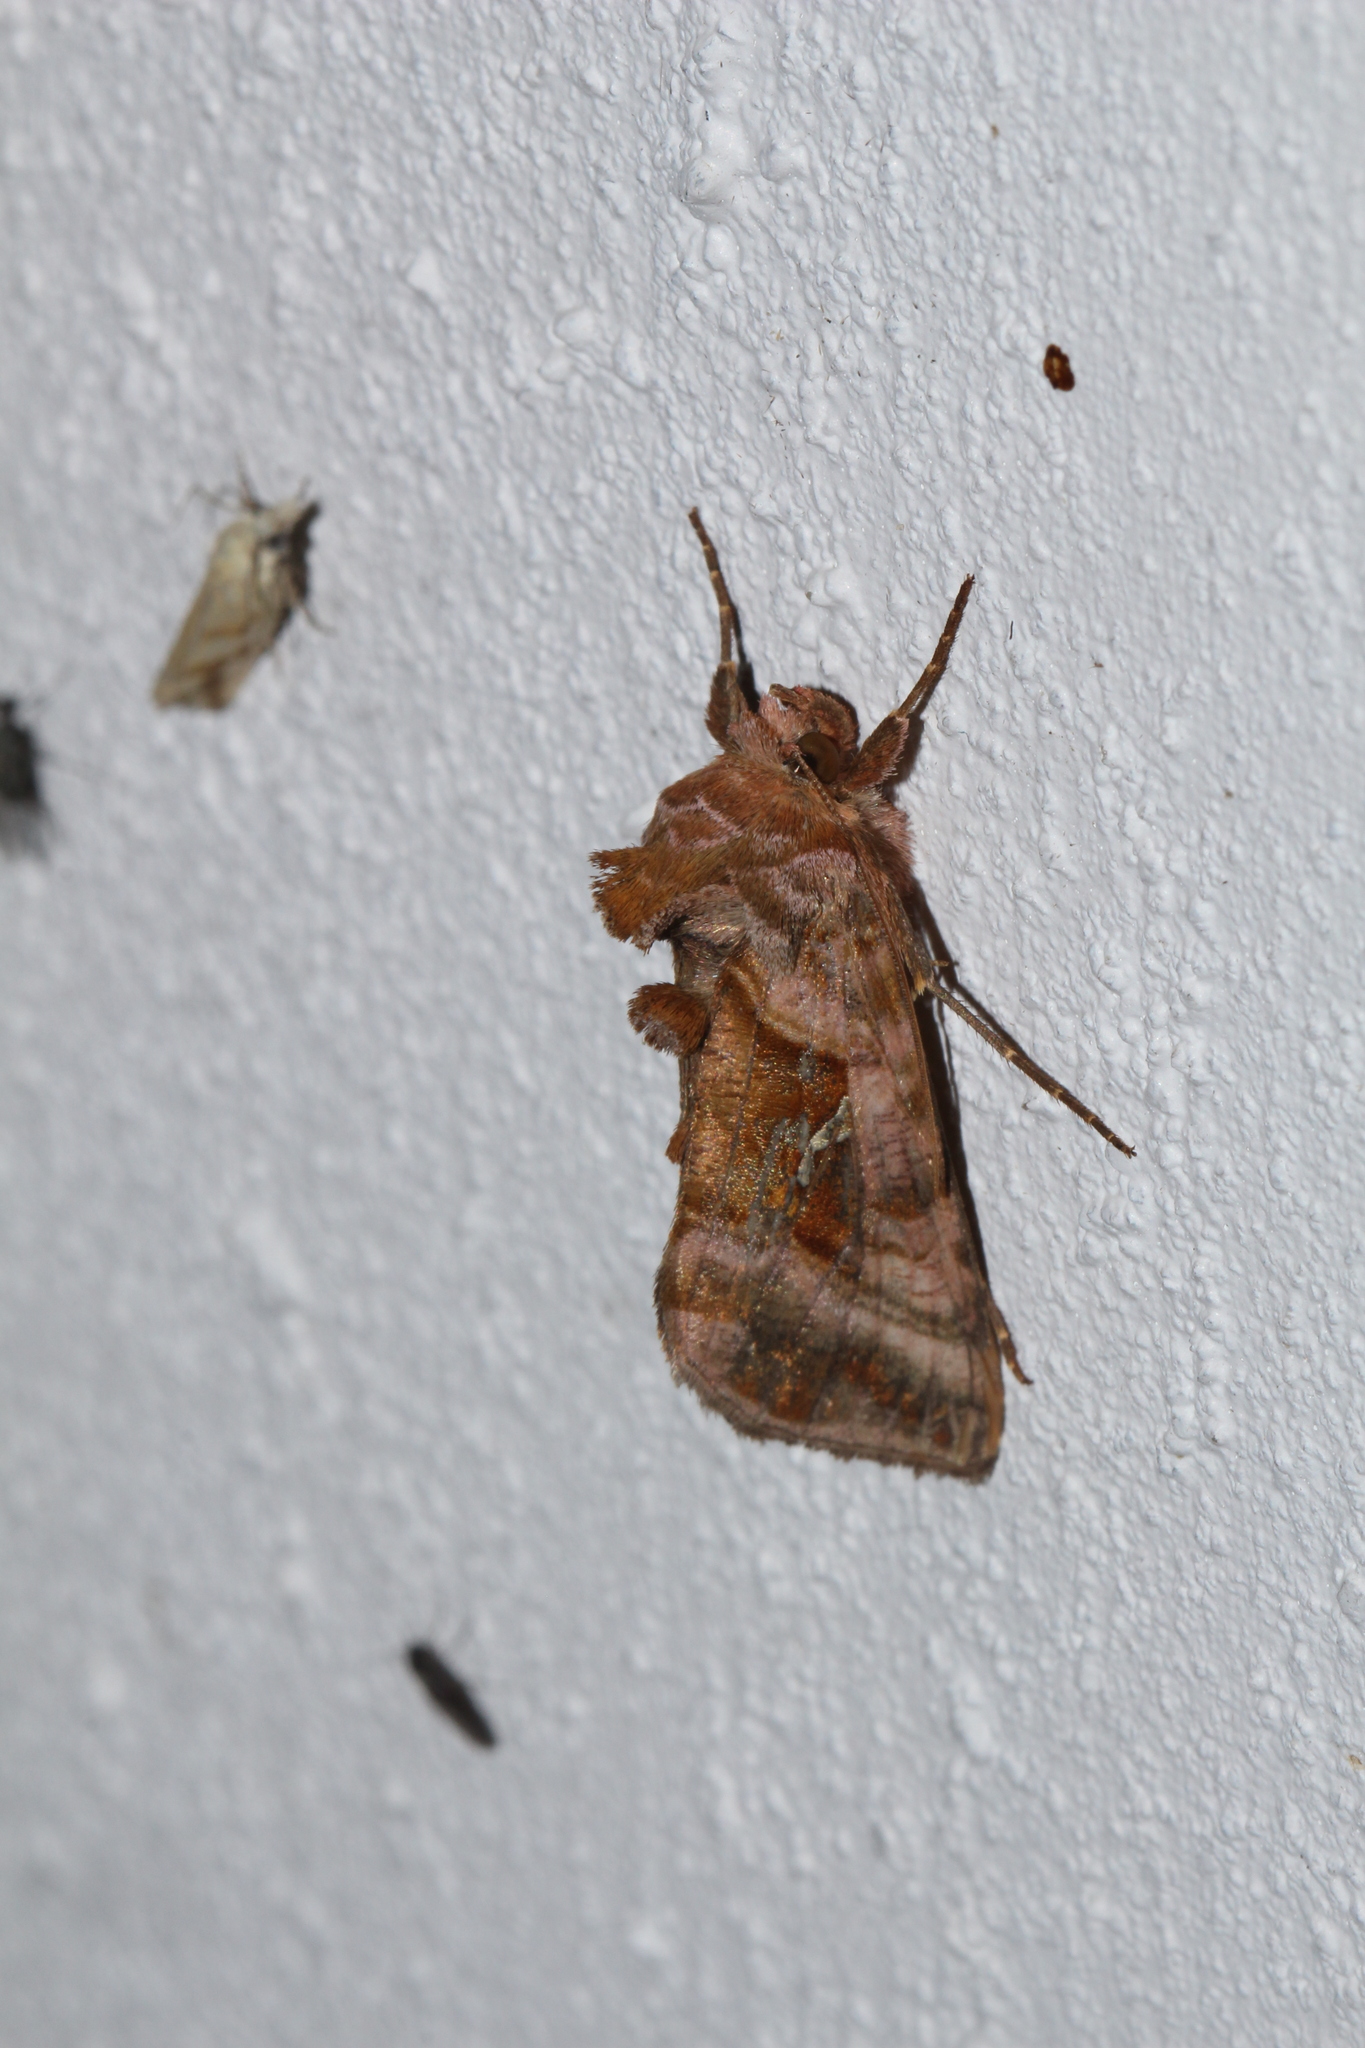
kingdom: Animalia
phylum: Arthropoda
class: Insecta
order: Lepidoptera
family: Noctuidae
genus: Autographa
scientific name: Autographa jota
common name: Plain golden y
